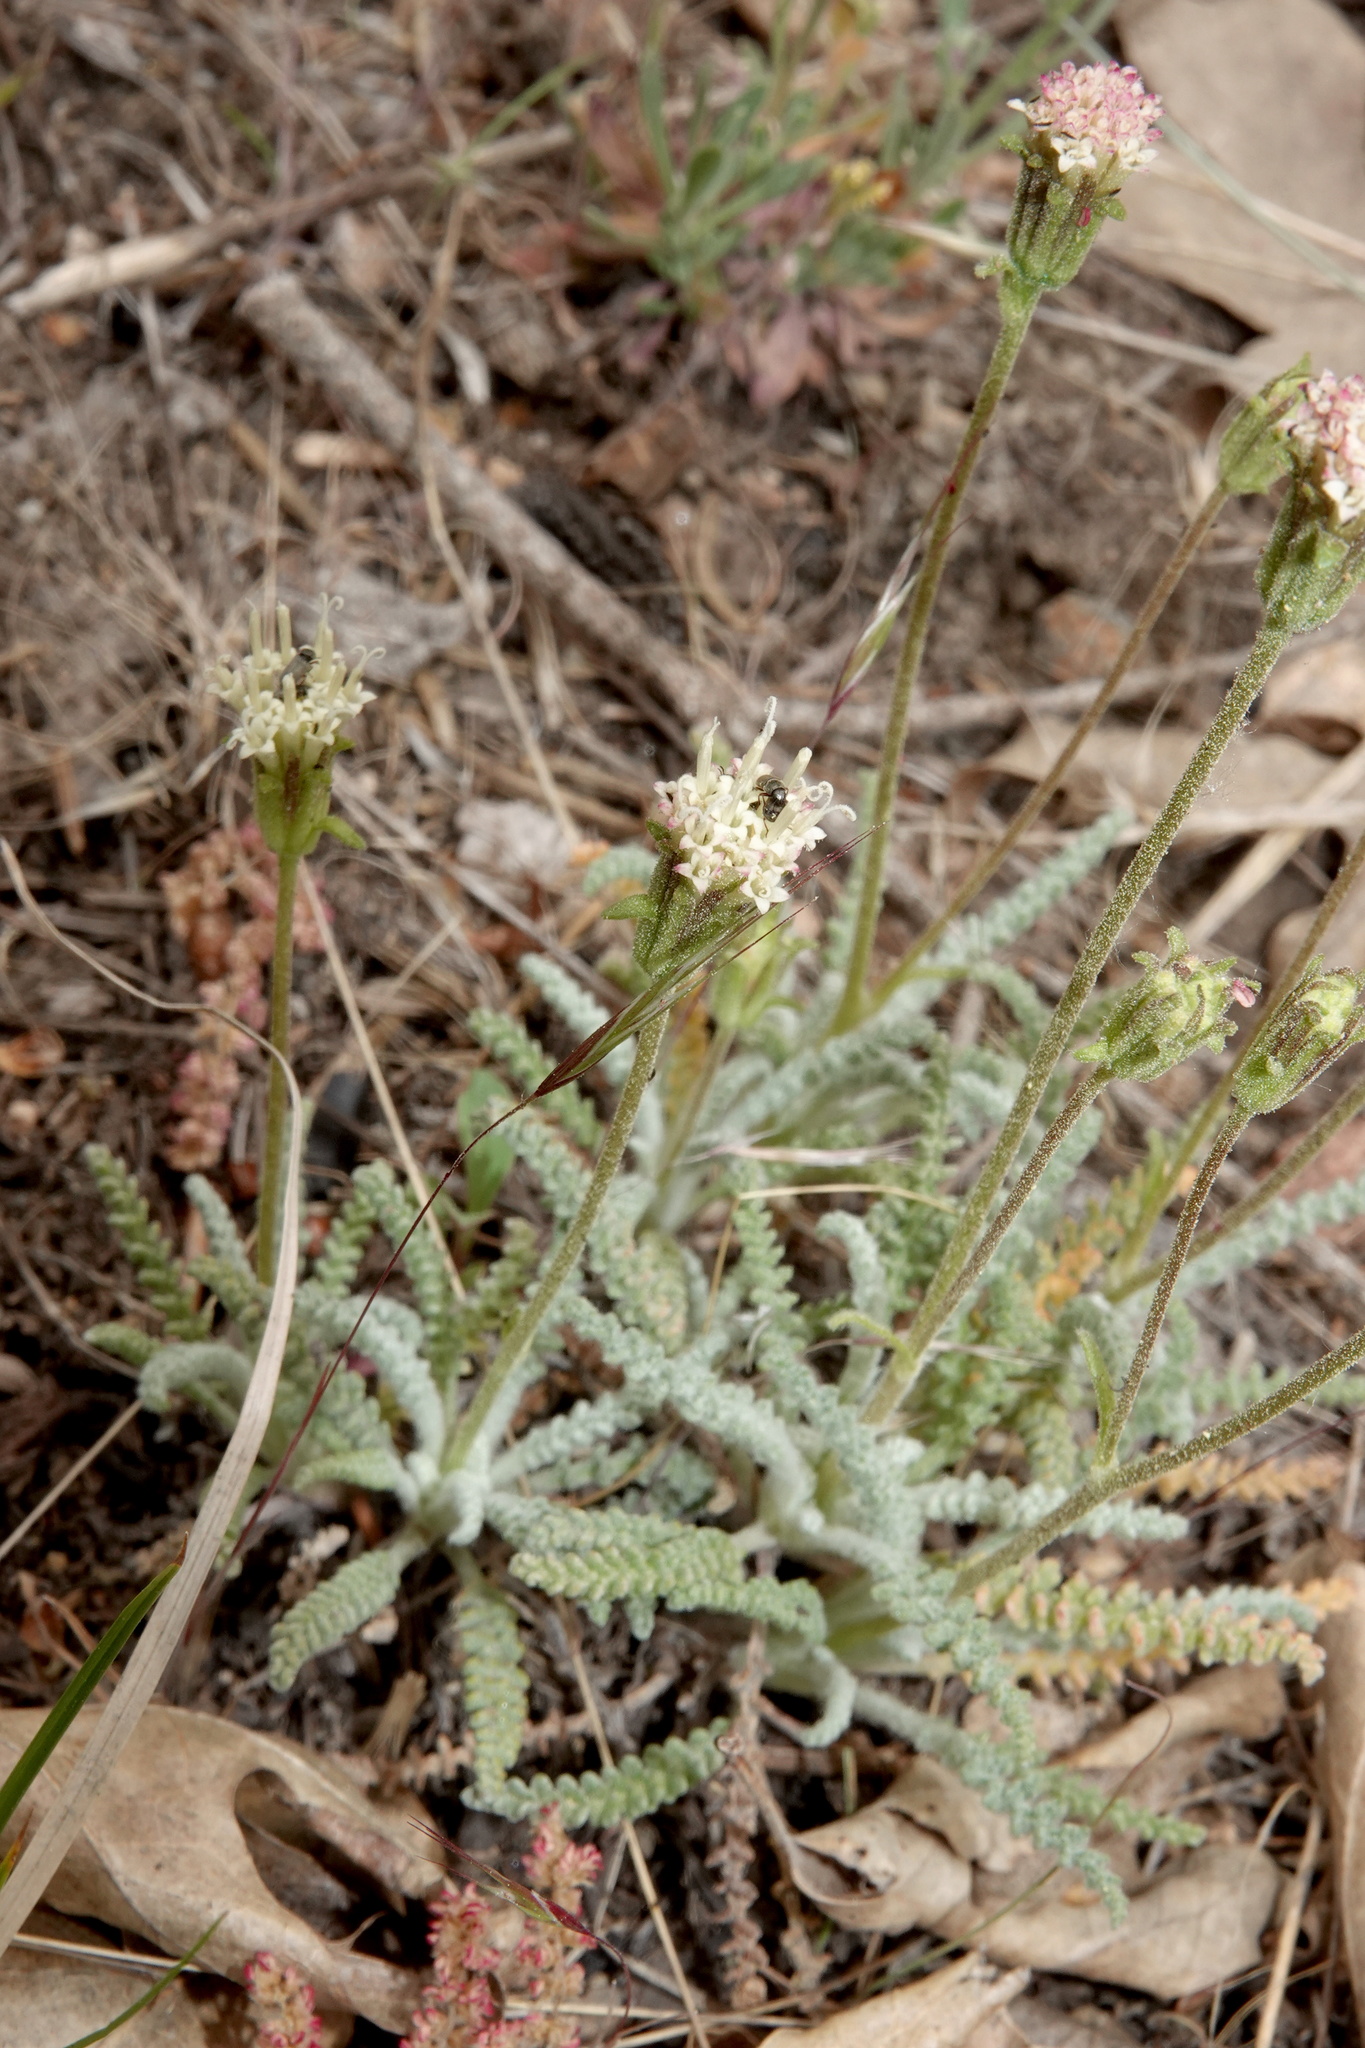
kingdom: Plantae
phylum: Tracheophyta
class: Magnoliopsida
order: Asterales
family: Asteraceae
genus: Chaenactis
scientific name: Chaenactis santolinoides
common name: Santolina pincushion
